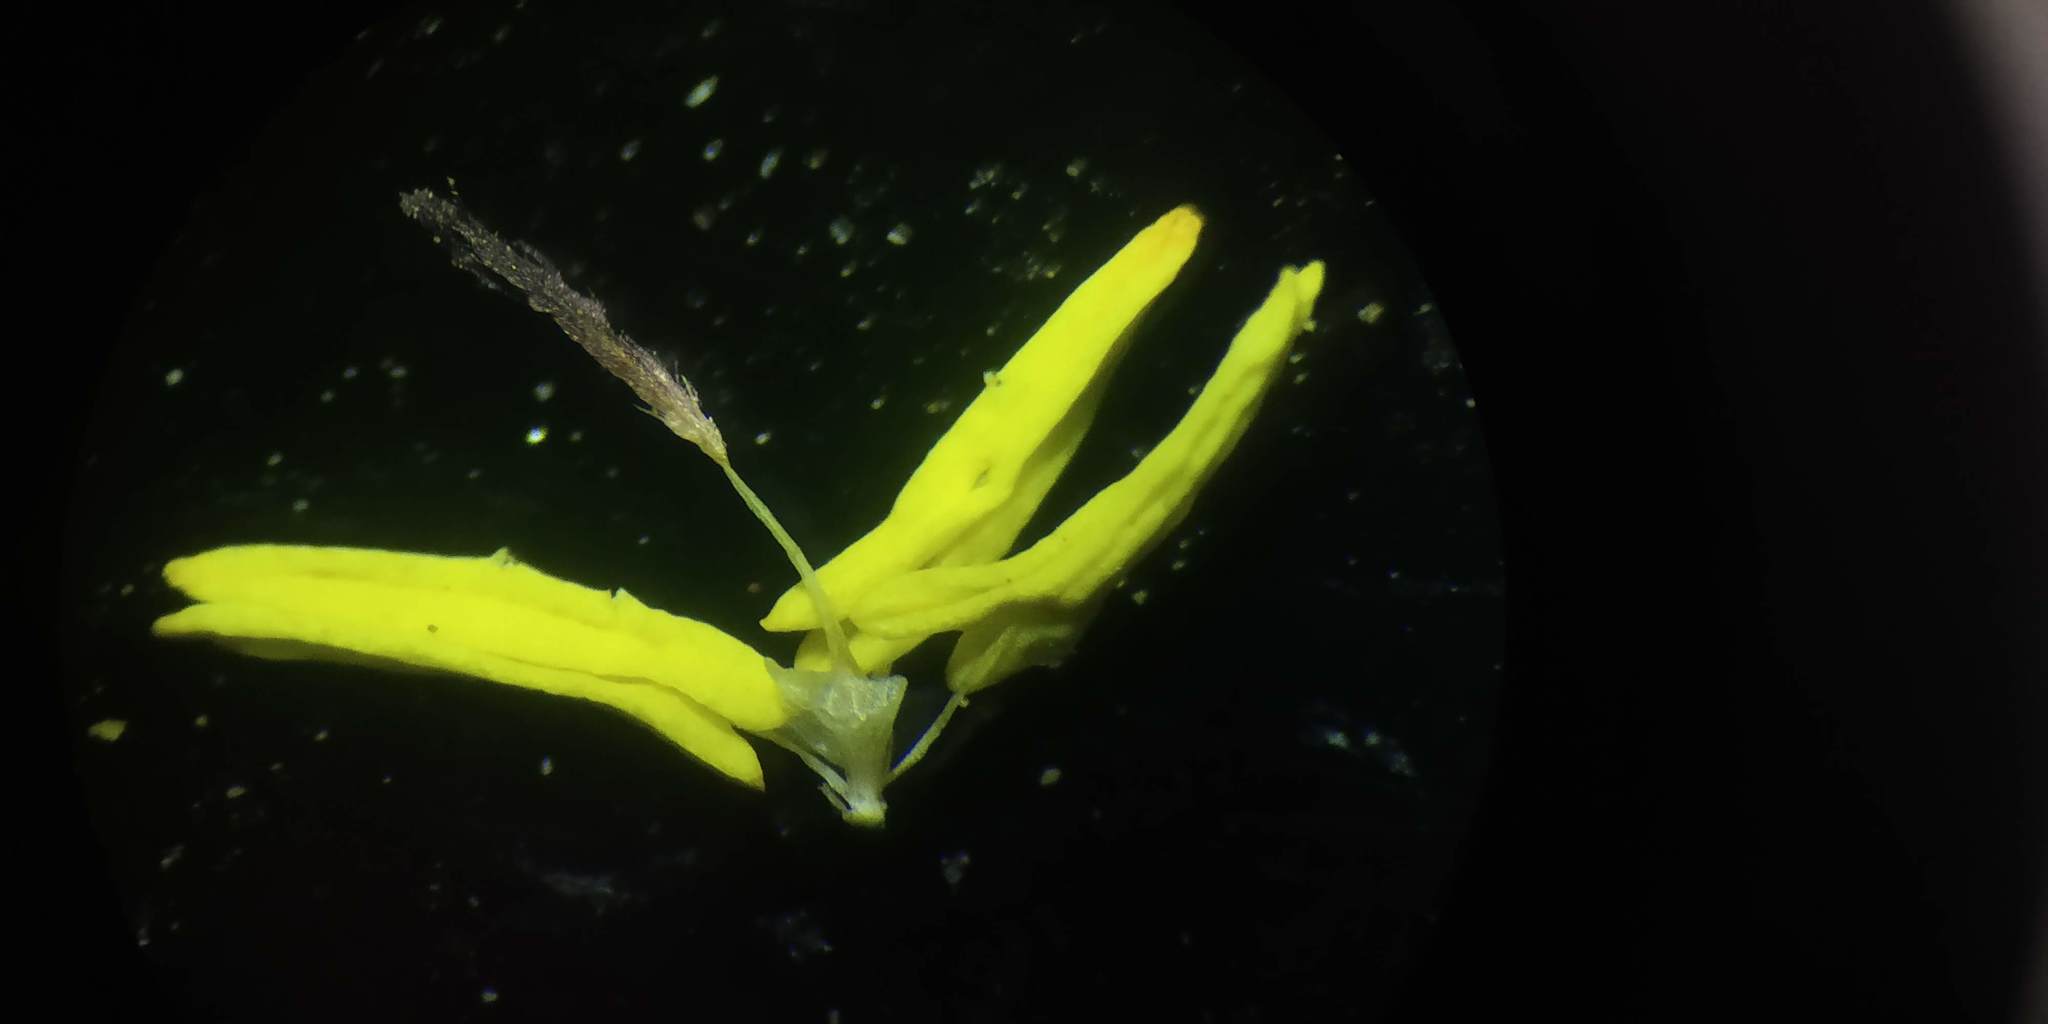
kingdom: Plantae
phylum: Tracheophyta
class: Liliopsida
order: Poales
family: Poaceae
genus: Ischaemum
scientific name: Ischaemum ciliare
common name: Grass
